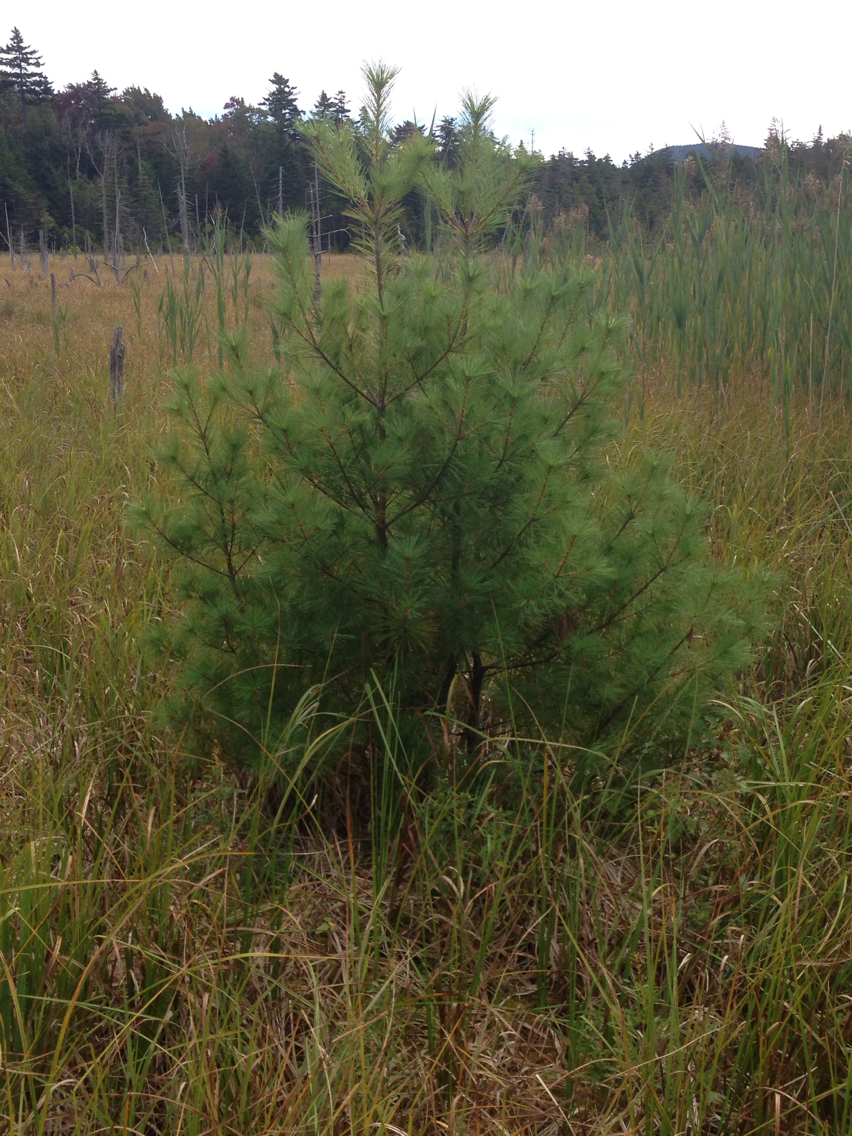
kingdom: Plantae
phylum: Tracheophyta
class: Pinopsida
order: Pinales
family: Pinaceae
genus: Pinus
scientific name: Pinus strobus
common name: Weymouth pine
